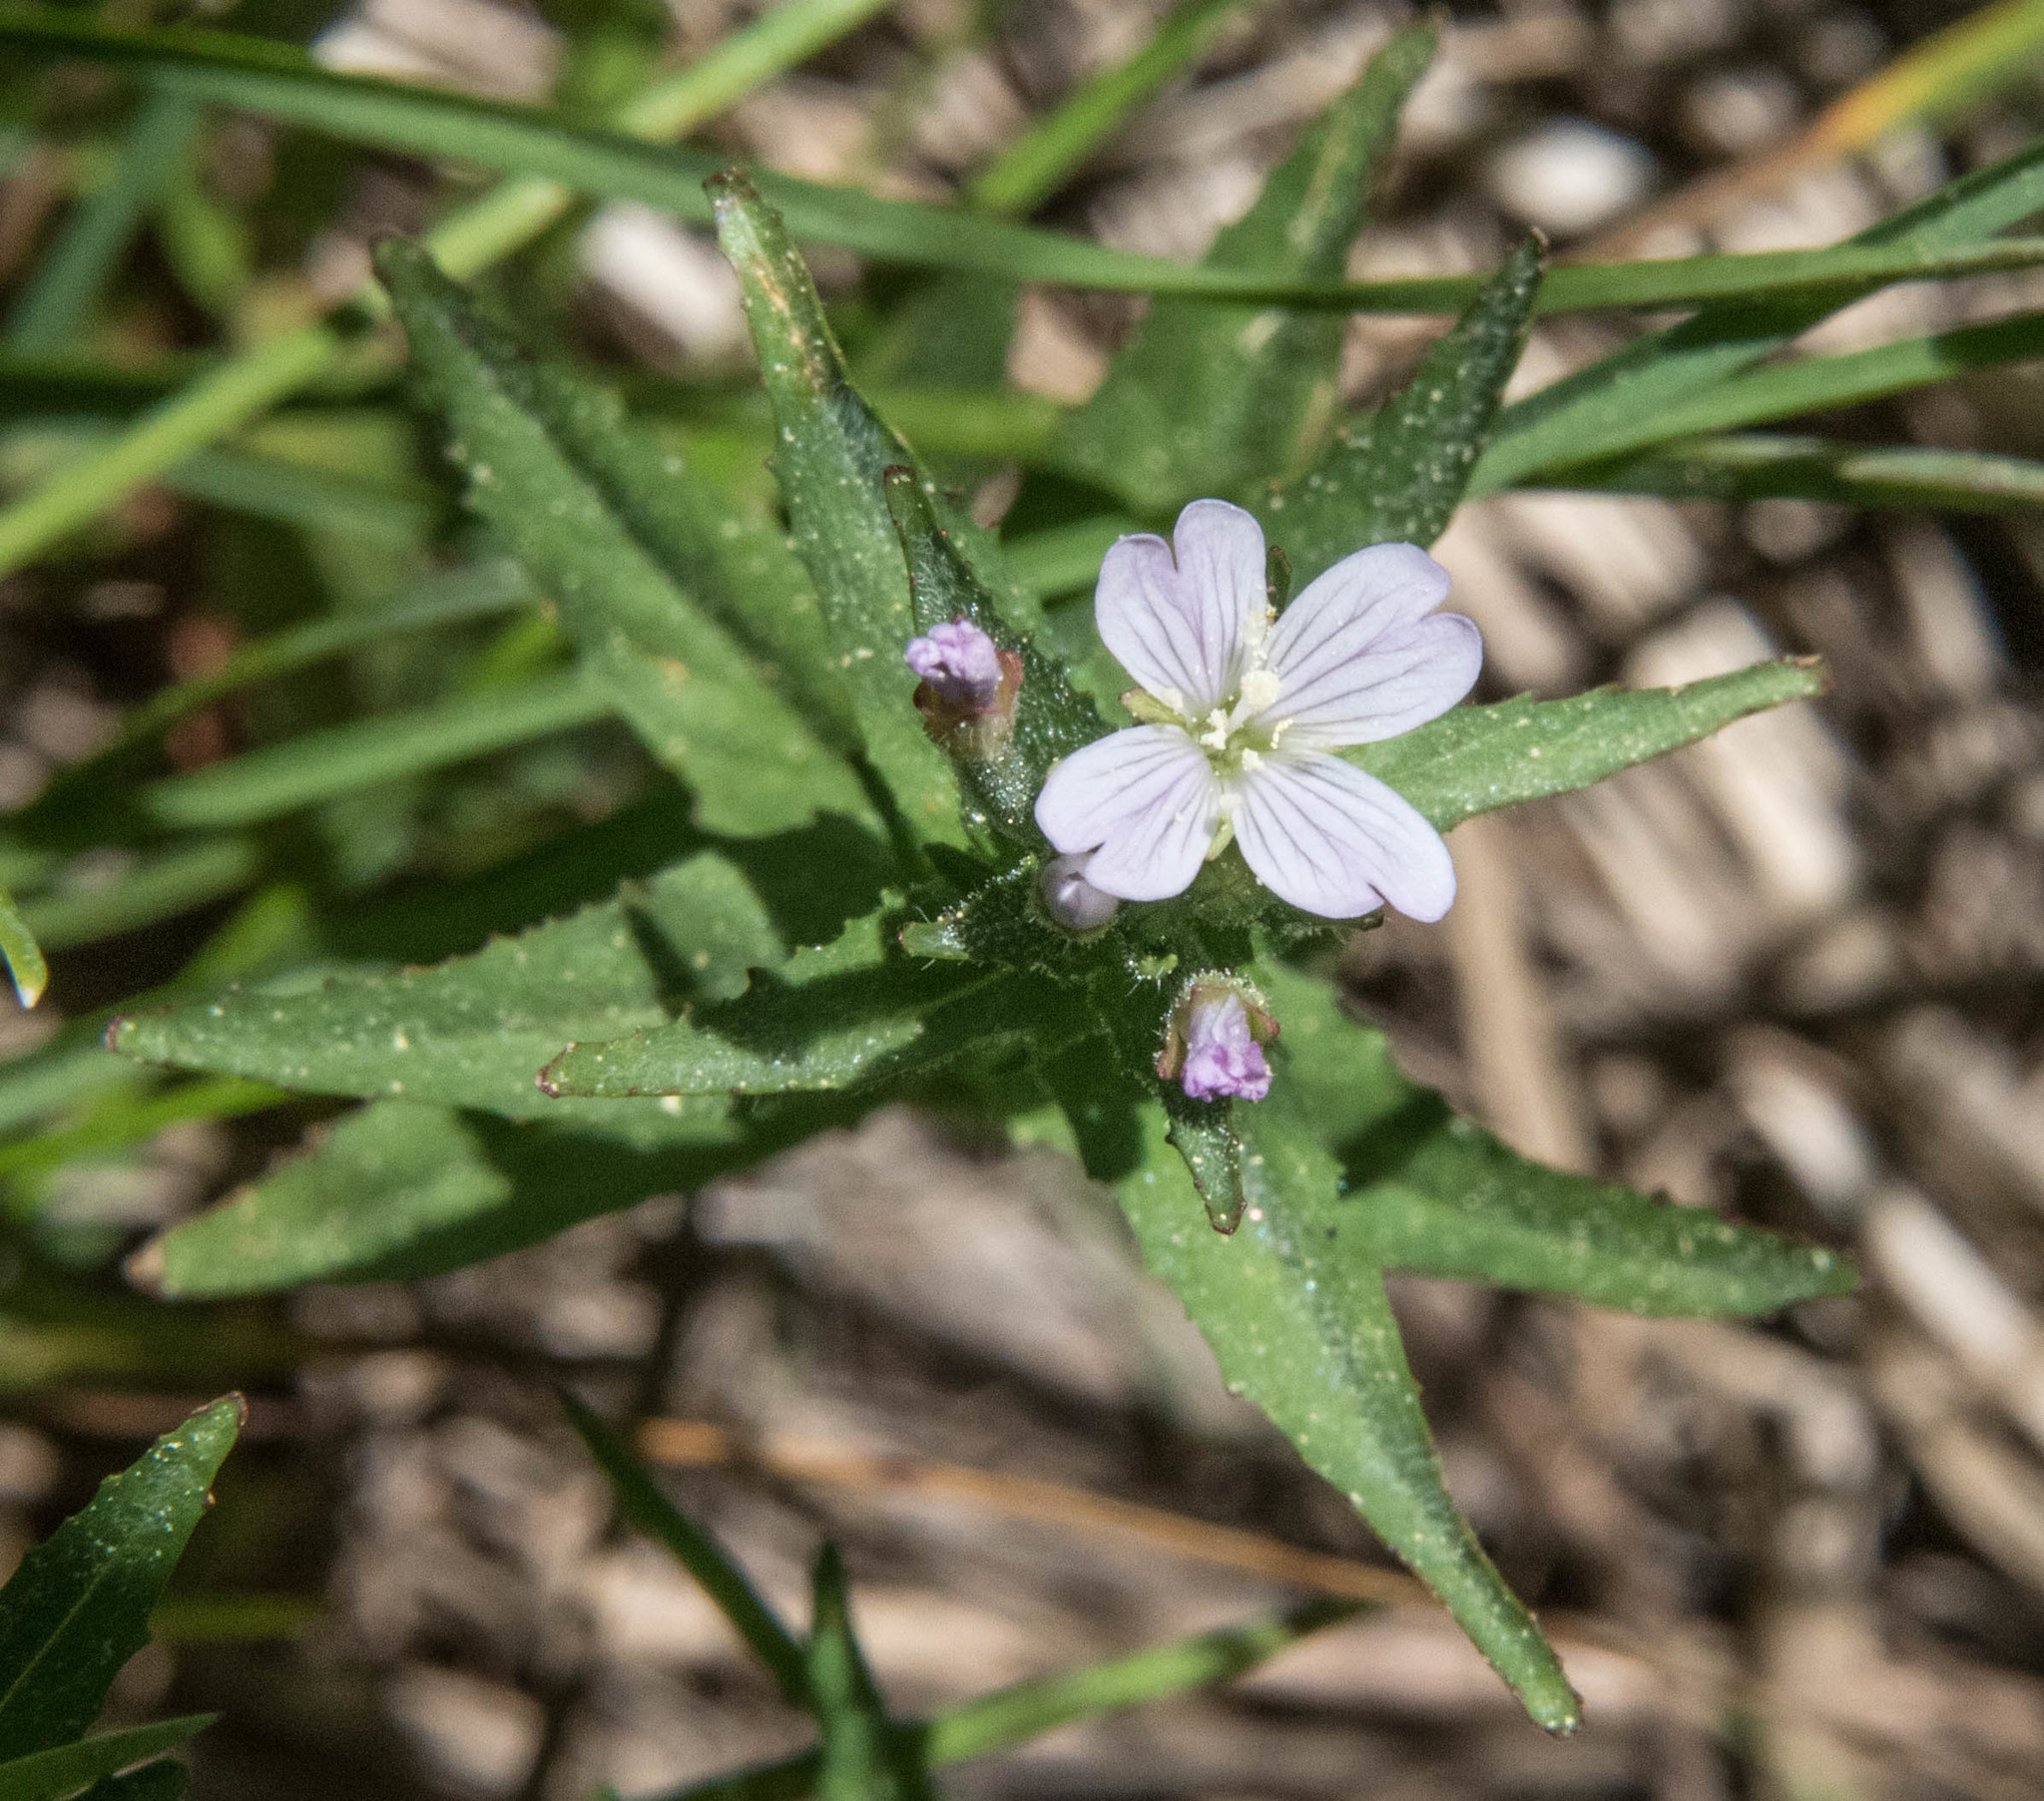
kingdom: Plantae
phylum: Tracheophyta
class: Magnoliopsida
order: Myrtales
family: Onagraceae
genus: Epilobium
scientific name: Epilobium ciliatum
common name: American willowherb
